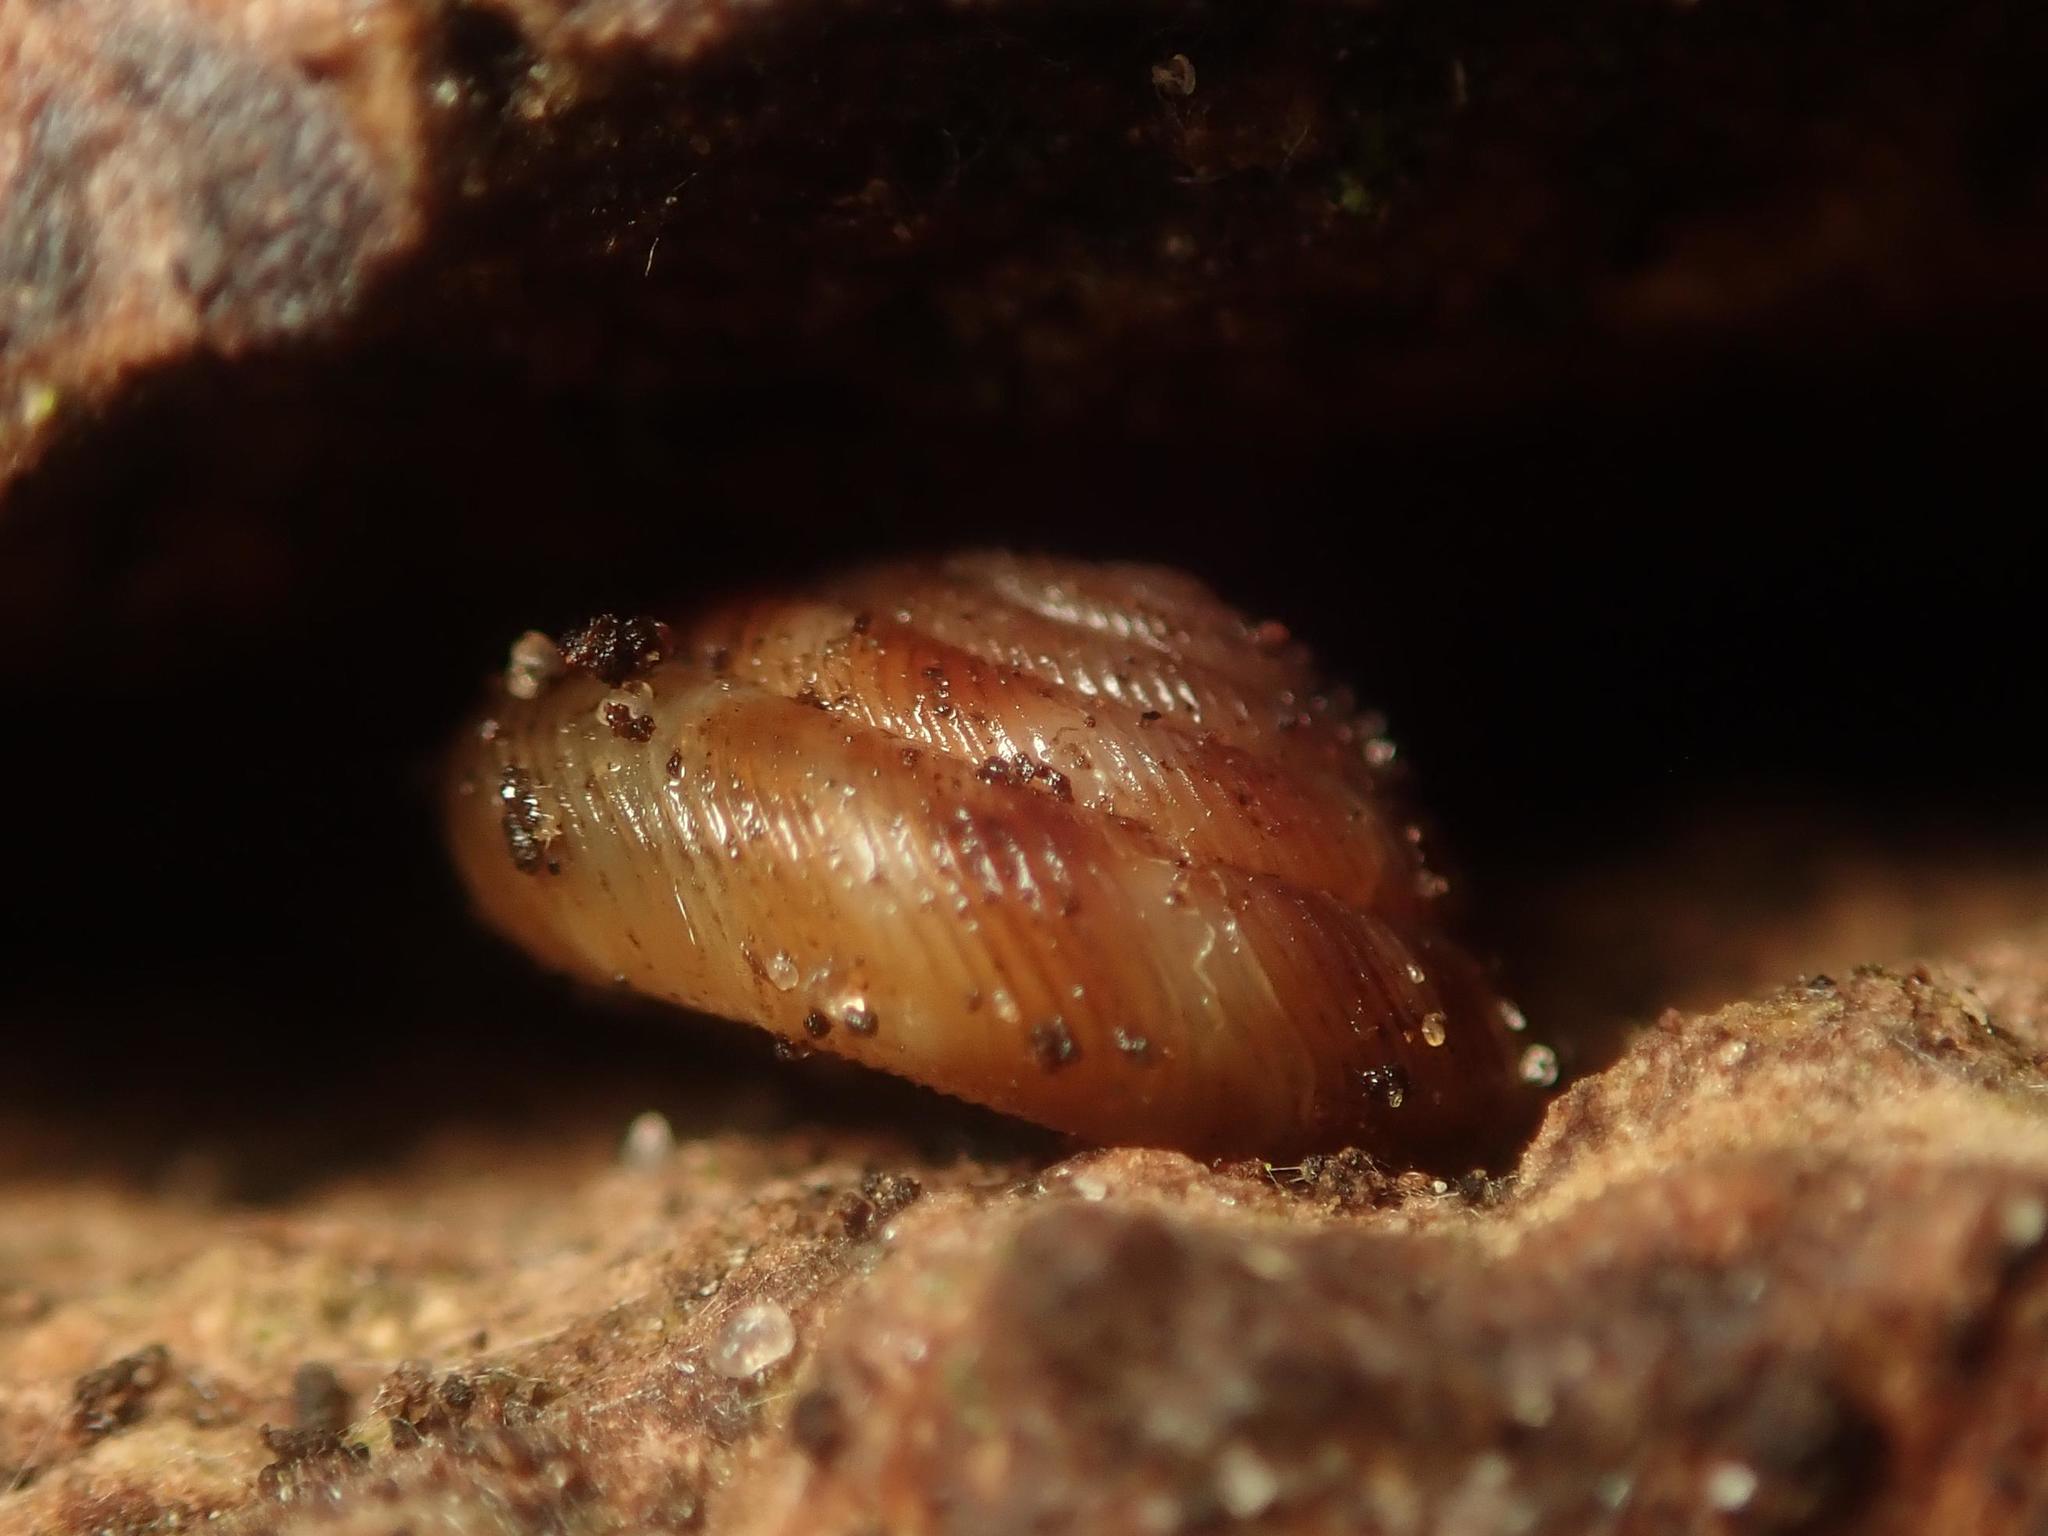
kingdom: Animalia
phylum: Mollusca
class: Gastropoda
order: Stylommatophora
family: Discidae
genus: Discus
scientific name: Discus rotundatus
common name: Rounded snail
